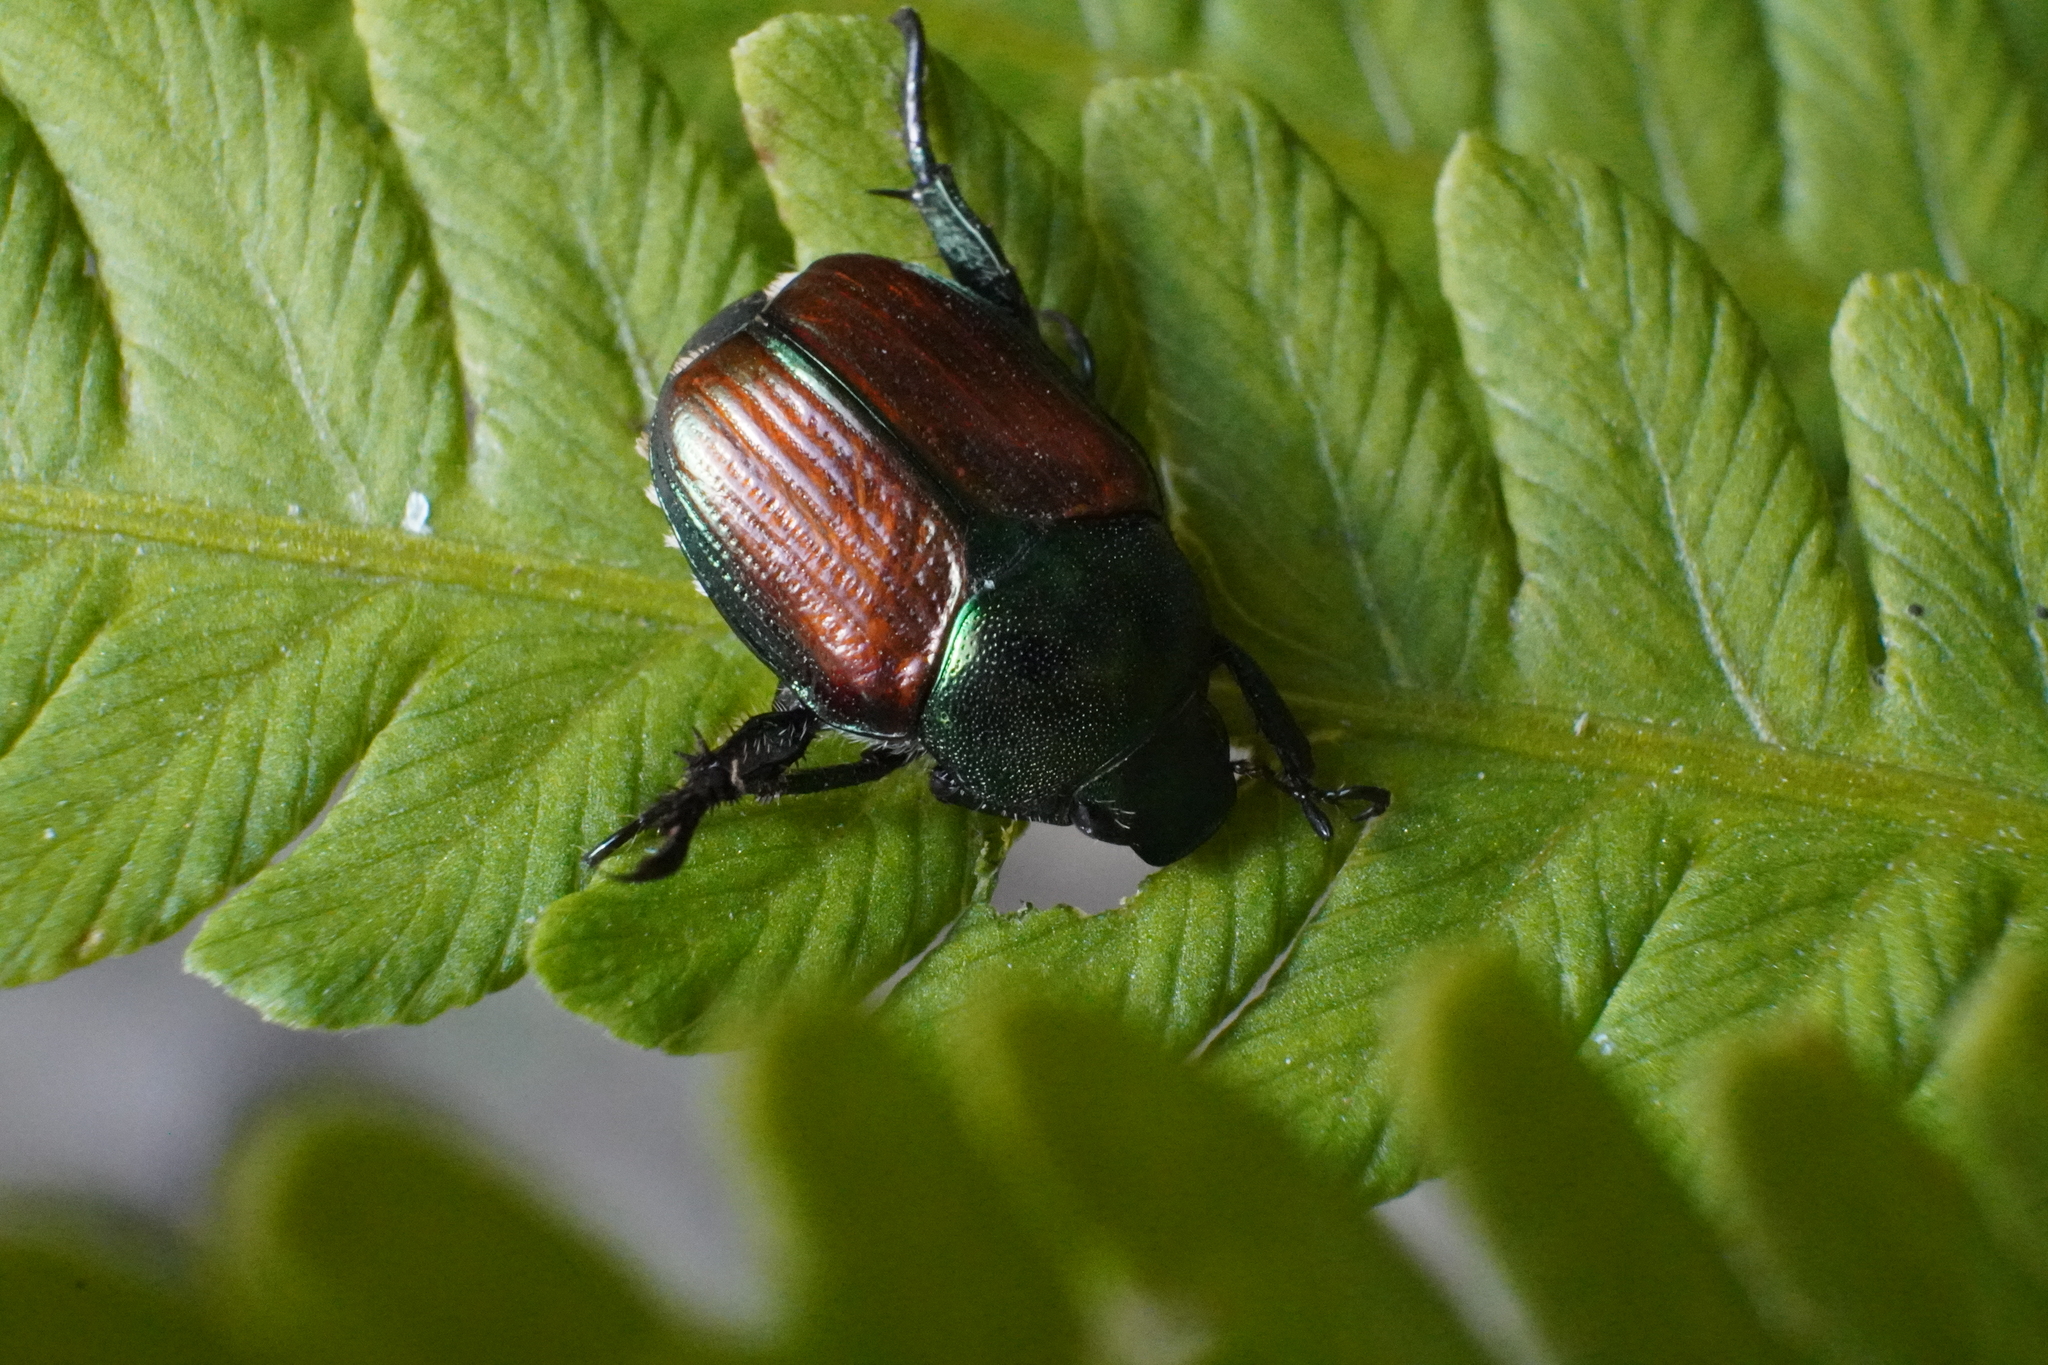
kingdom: Animalia
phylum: Arthropoda
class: Insecta
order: Coleoptera
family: Scarabaeidae
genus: Popillia
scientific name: Popillia japonica
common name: Japanese beetle
